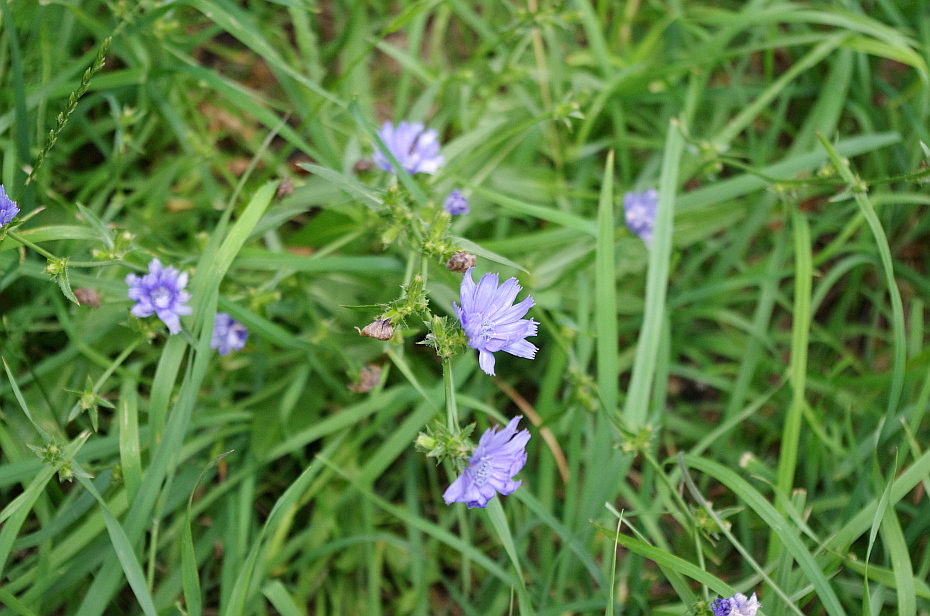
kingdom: Plantae
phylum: Tracheophyta
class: Magnoliopsida
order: Asterales
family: Asteraceae
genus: Cichorium
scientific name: Cichorium intybus
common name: Chicory
